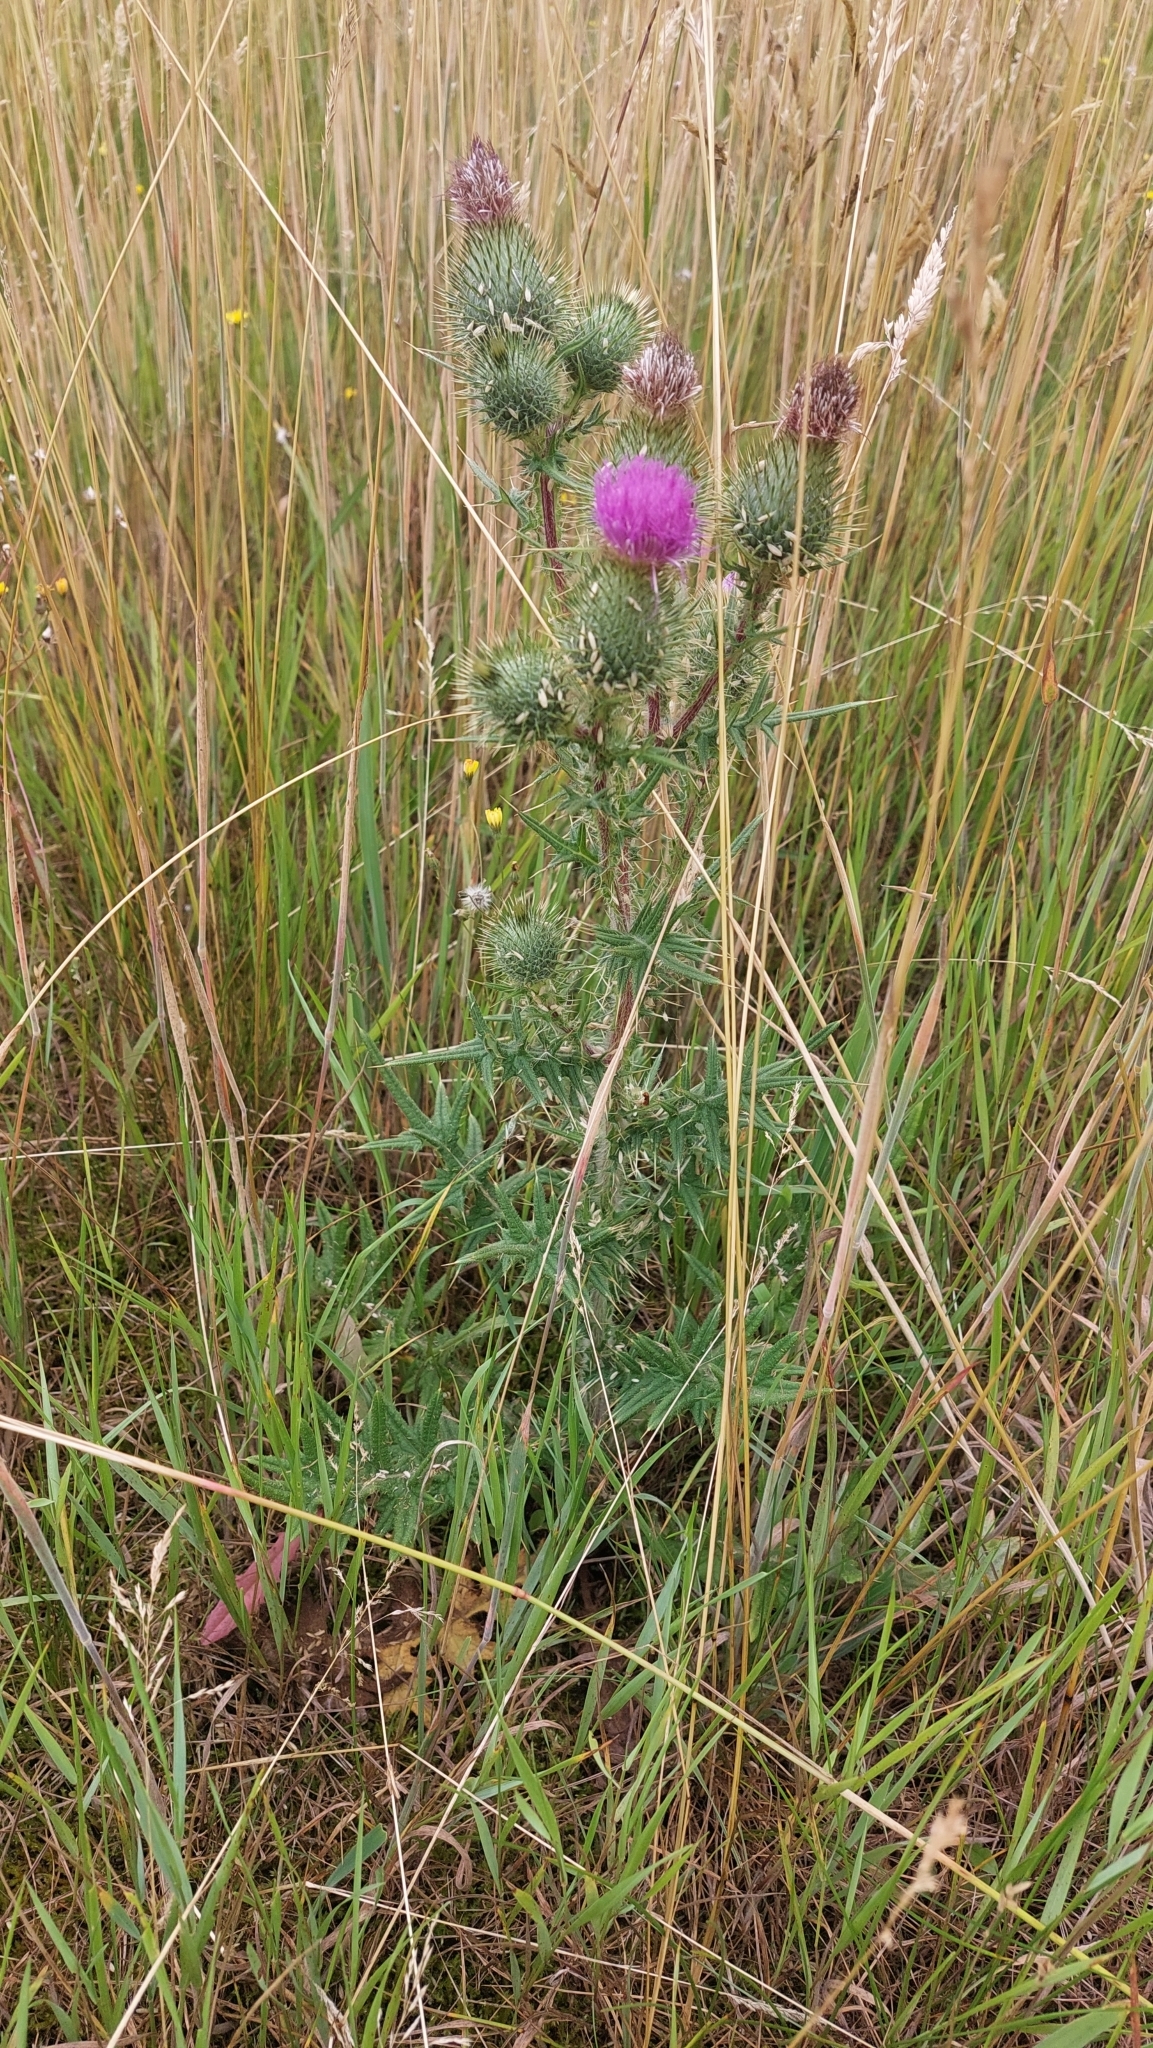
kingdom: Plantae
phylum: Tracheophyta
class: Magnoliopsida
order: Asterales
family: Asteraceae
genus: Cirsium
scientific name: Cirsium vulgare
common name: Bull thistle
